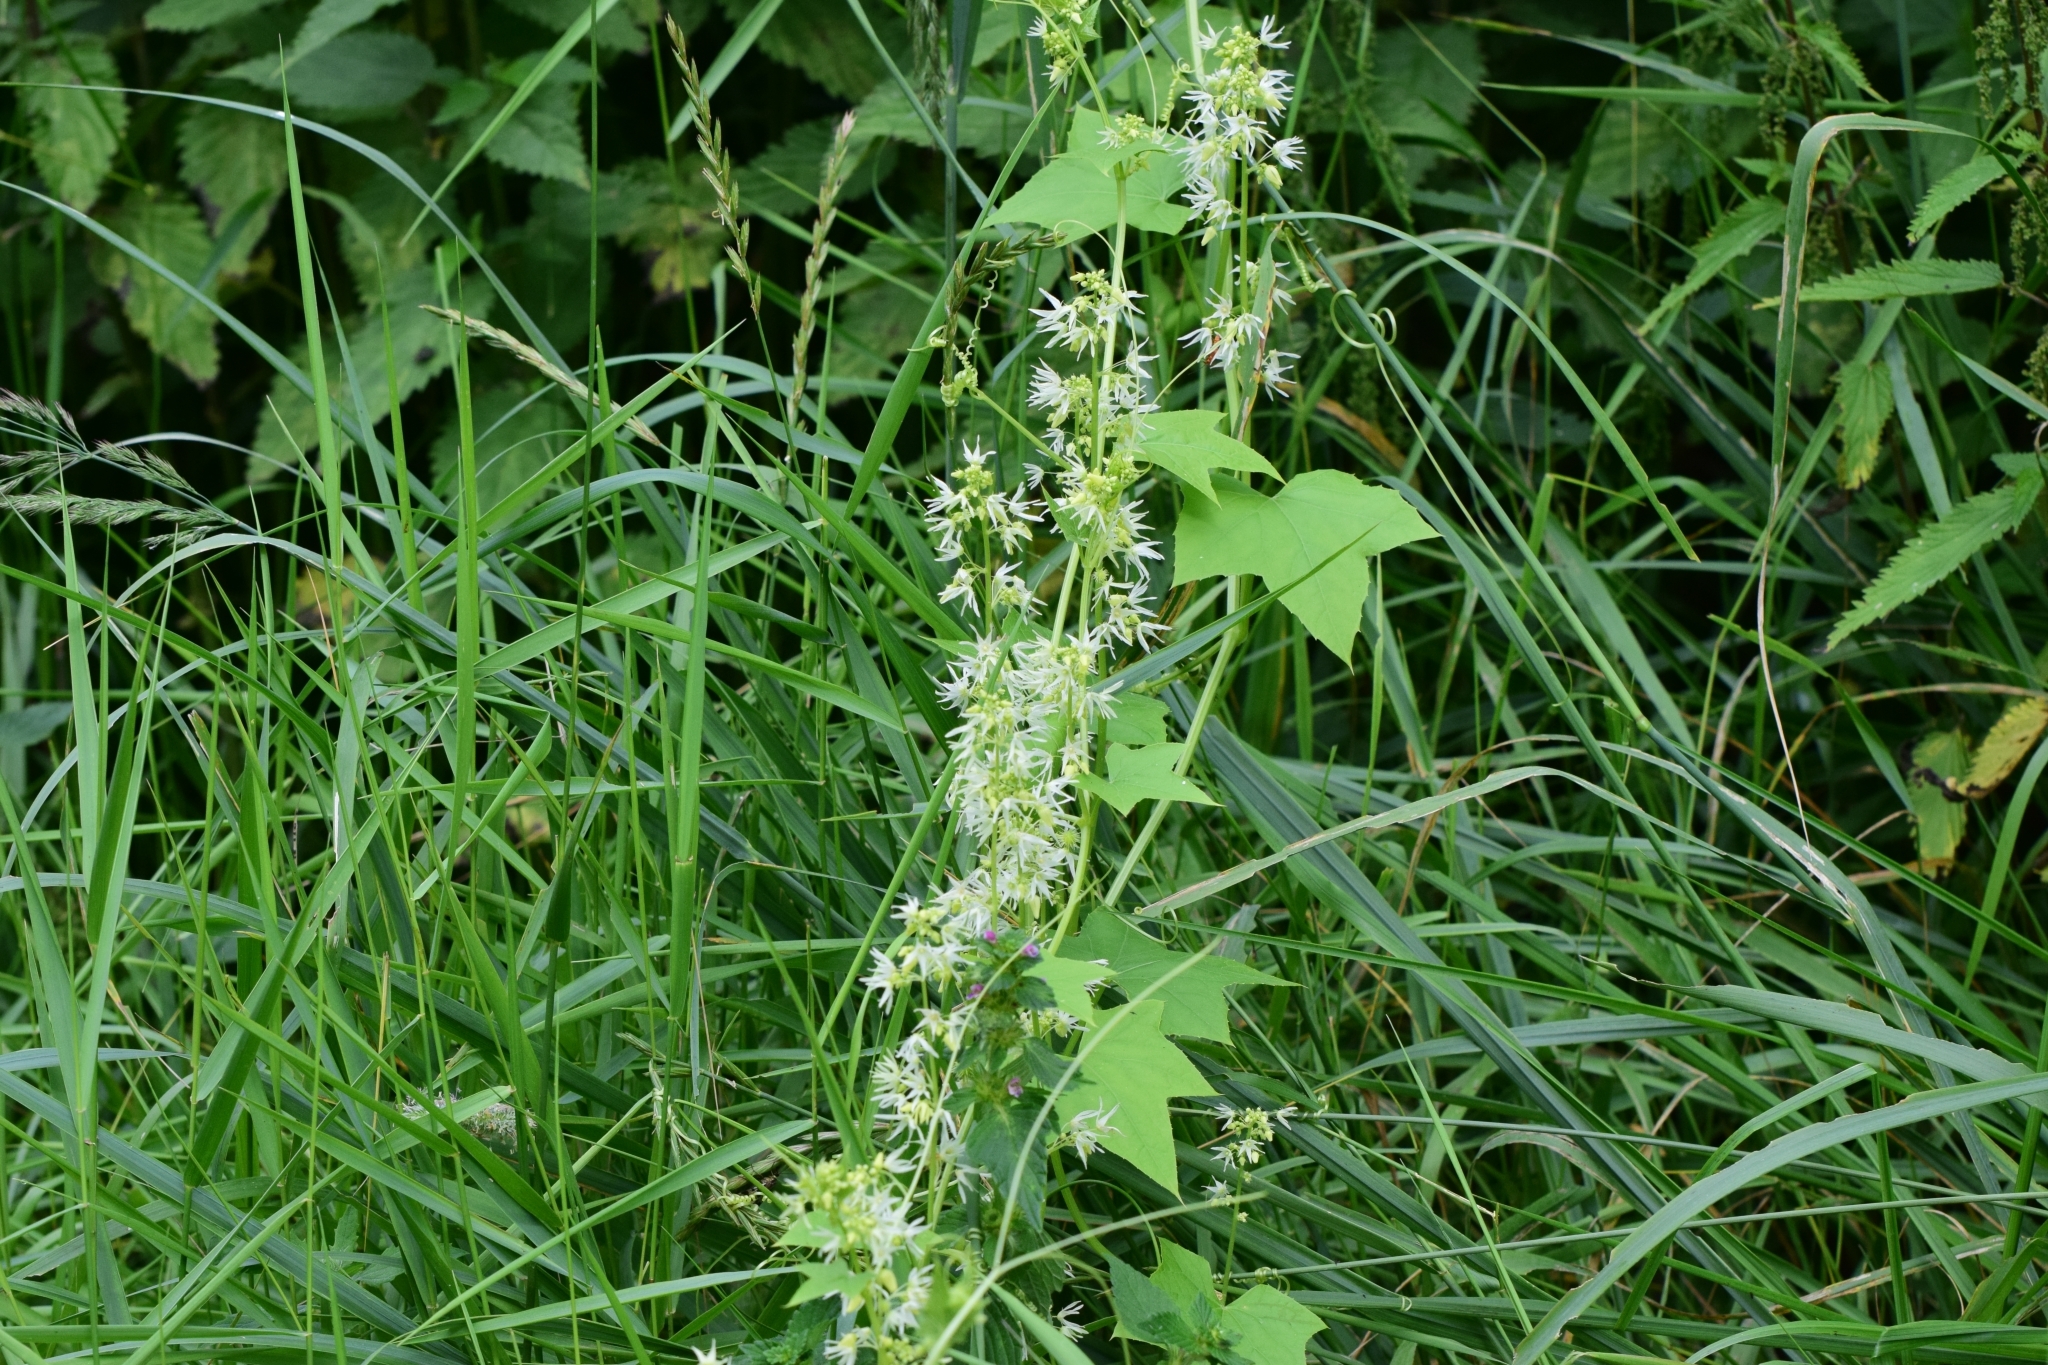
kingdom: Plantae
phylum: Tracheophyta
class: Magnoliopsida
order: Cucurbitales
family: Cucurbitaceae
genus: Echinocystis
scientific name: Echinocystis lobata
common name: Wild cucumber
